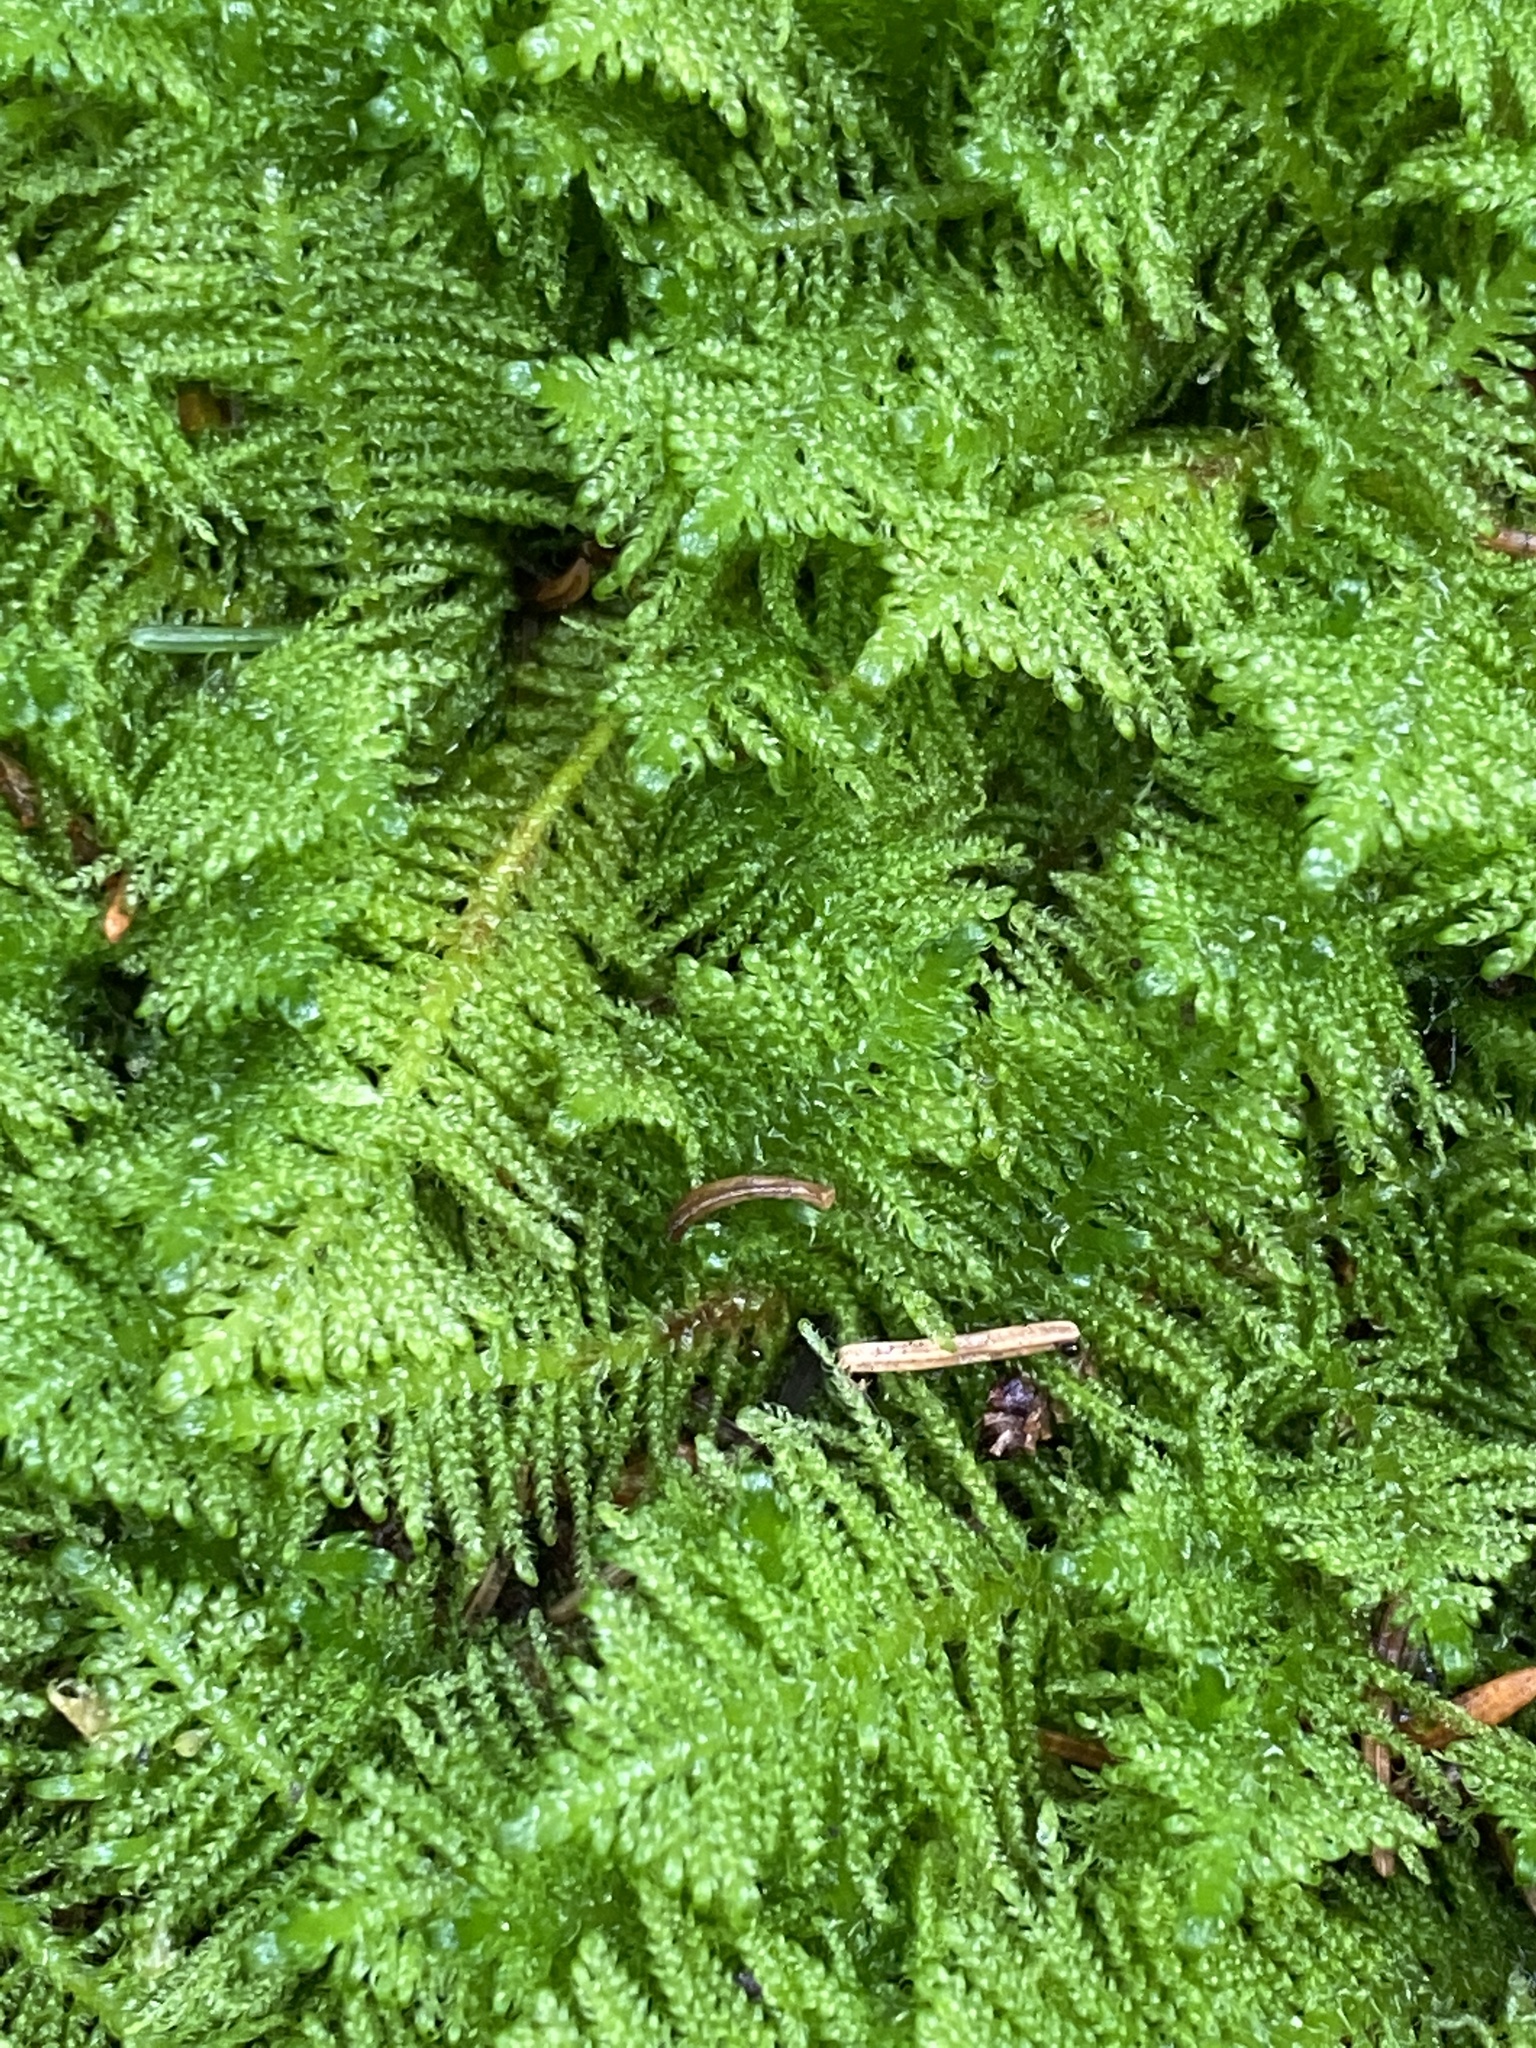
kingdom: Plantae
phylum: Bryophyta
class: Bryopsida
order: Hypnales
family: Pylaisiaceae
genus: Ptilium
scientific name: Ptilium crista-castrensis
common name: Knight's plume moss
